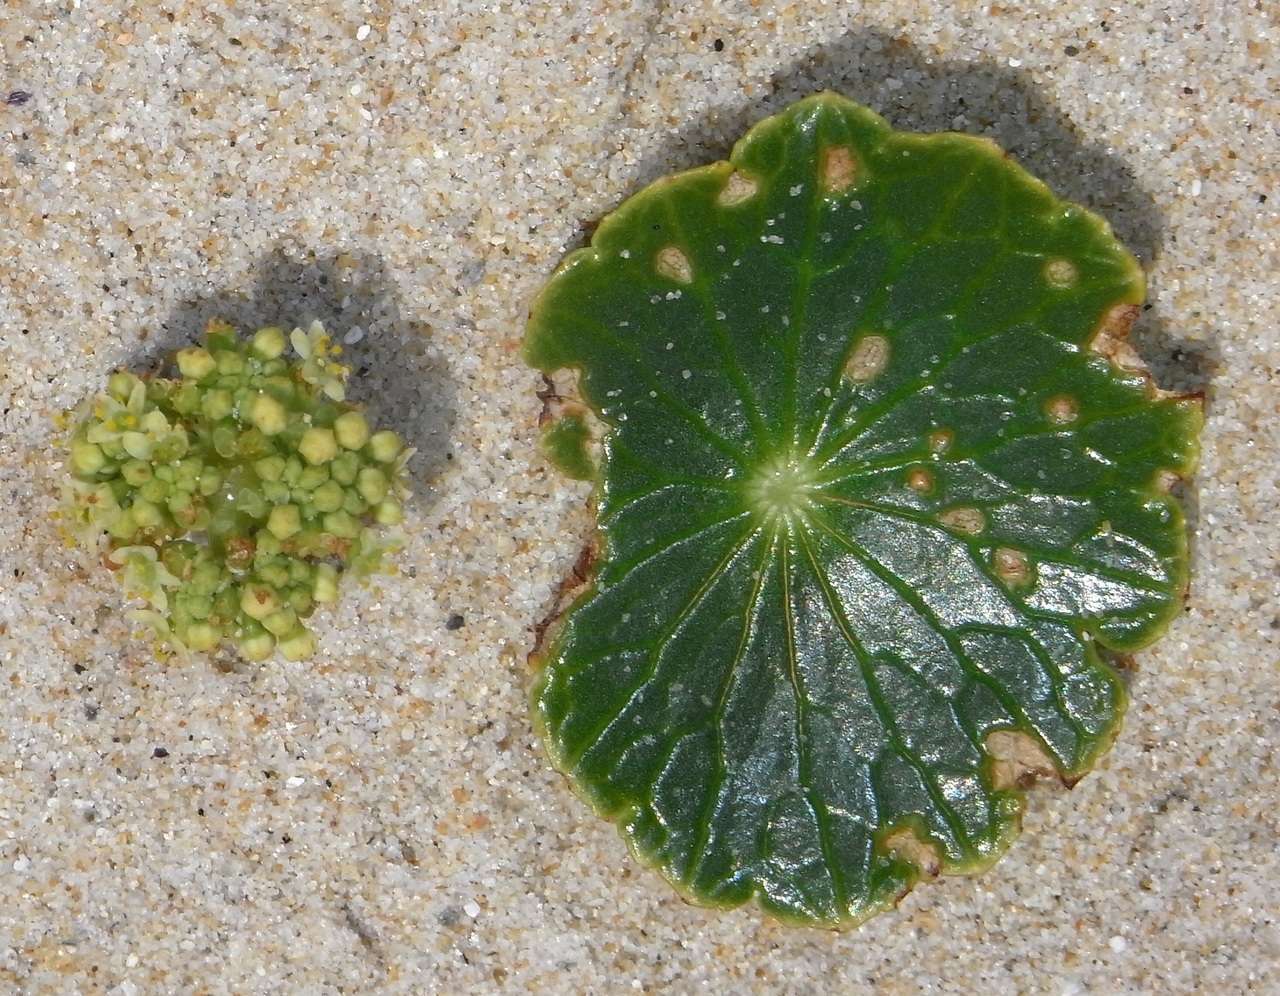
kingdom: Plantae
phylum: Tracheophyta
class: Magnoliopsida
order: Apiales
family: Araliaceae
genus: Hydrocotyle
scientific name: Hydrocotyle bonariensis
